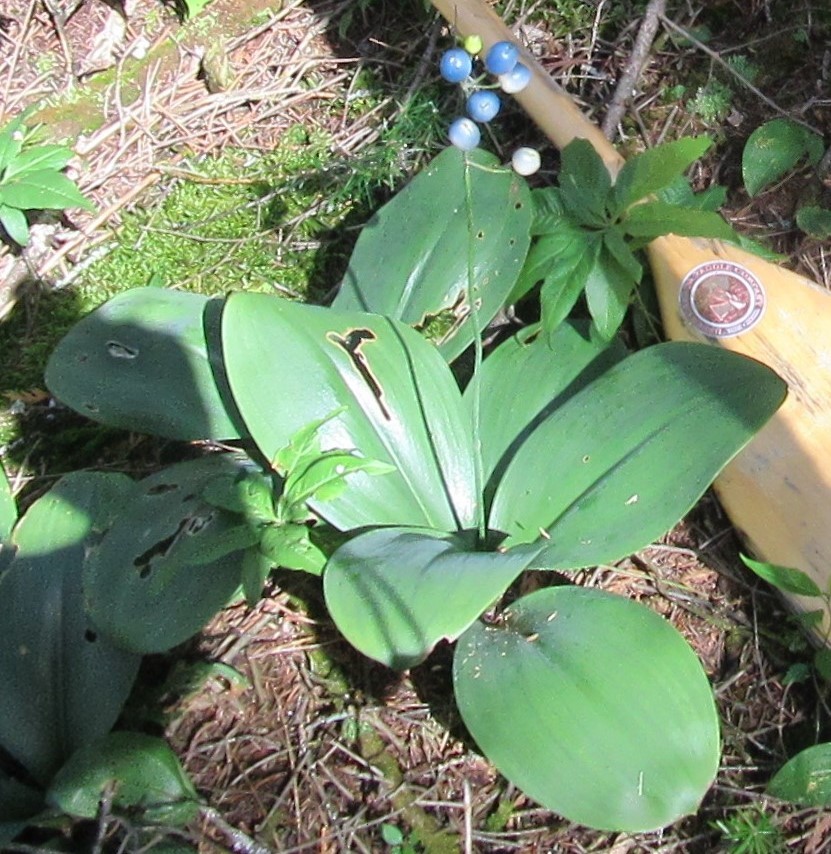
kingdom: Plantae
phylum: Tracheophyta
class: Liliopsida
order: Liliales
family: Liliaceae
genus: Clintonia
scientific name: Clintonia borealis
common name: Yellow clintonia
